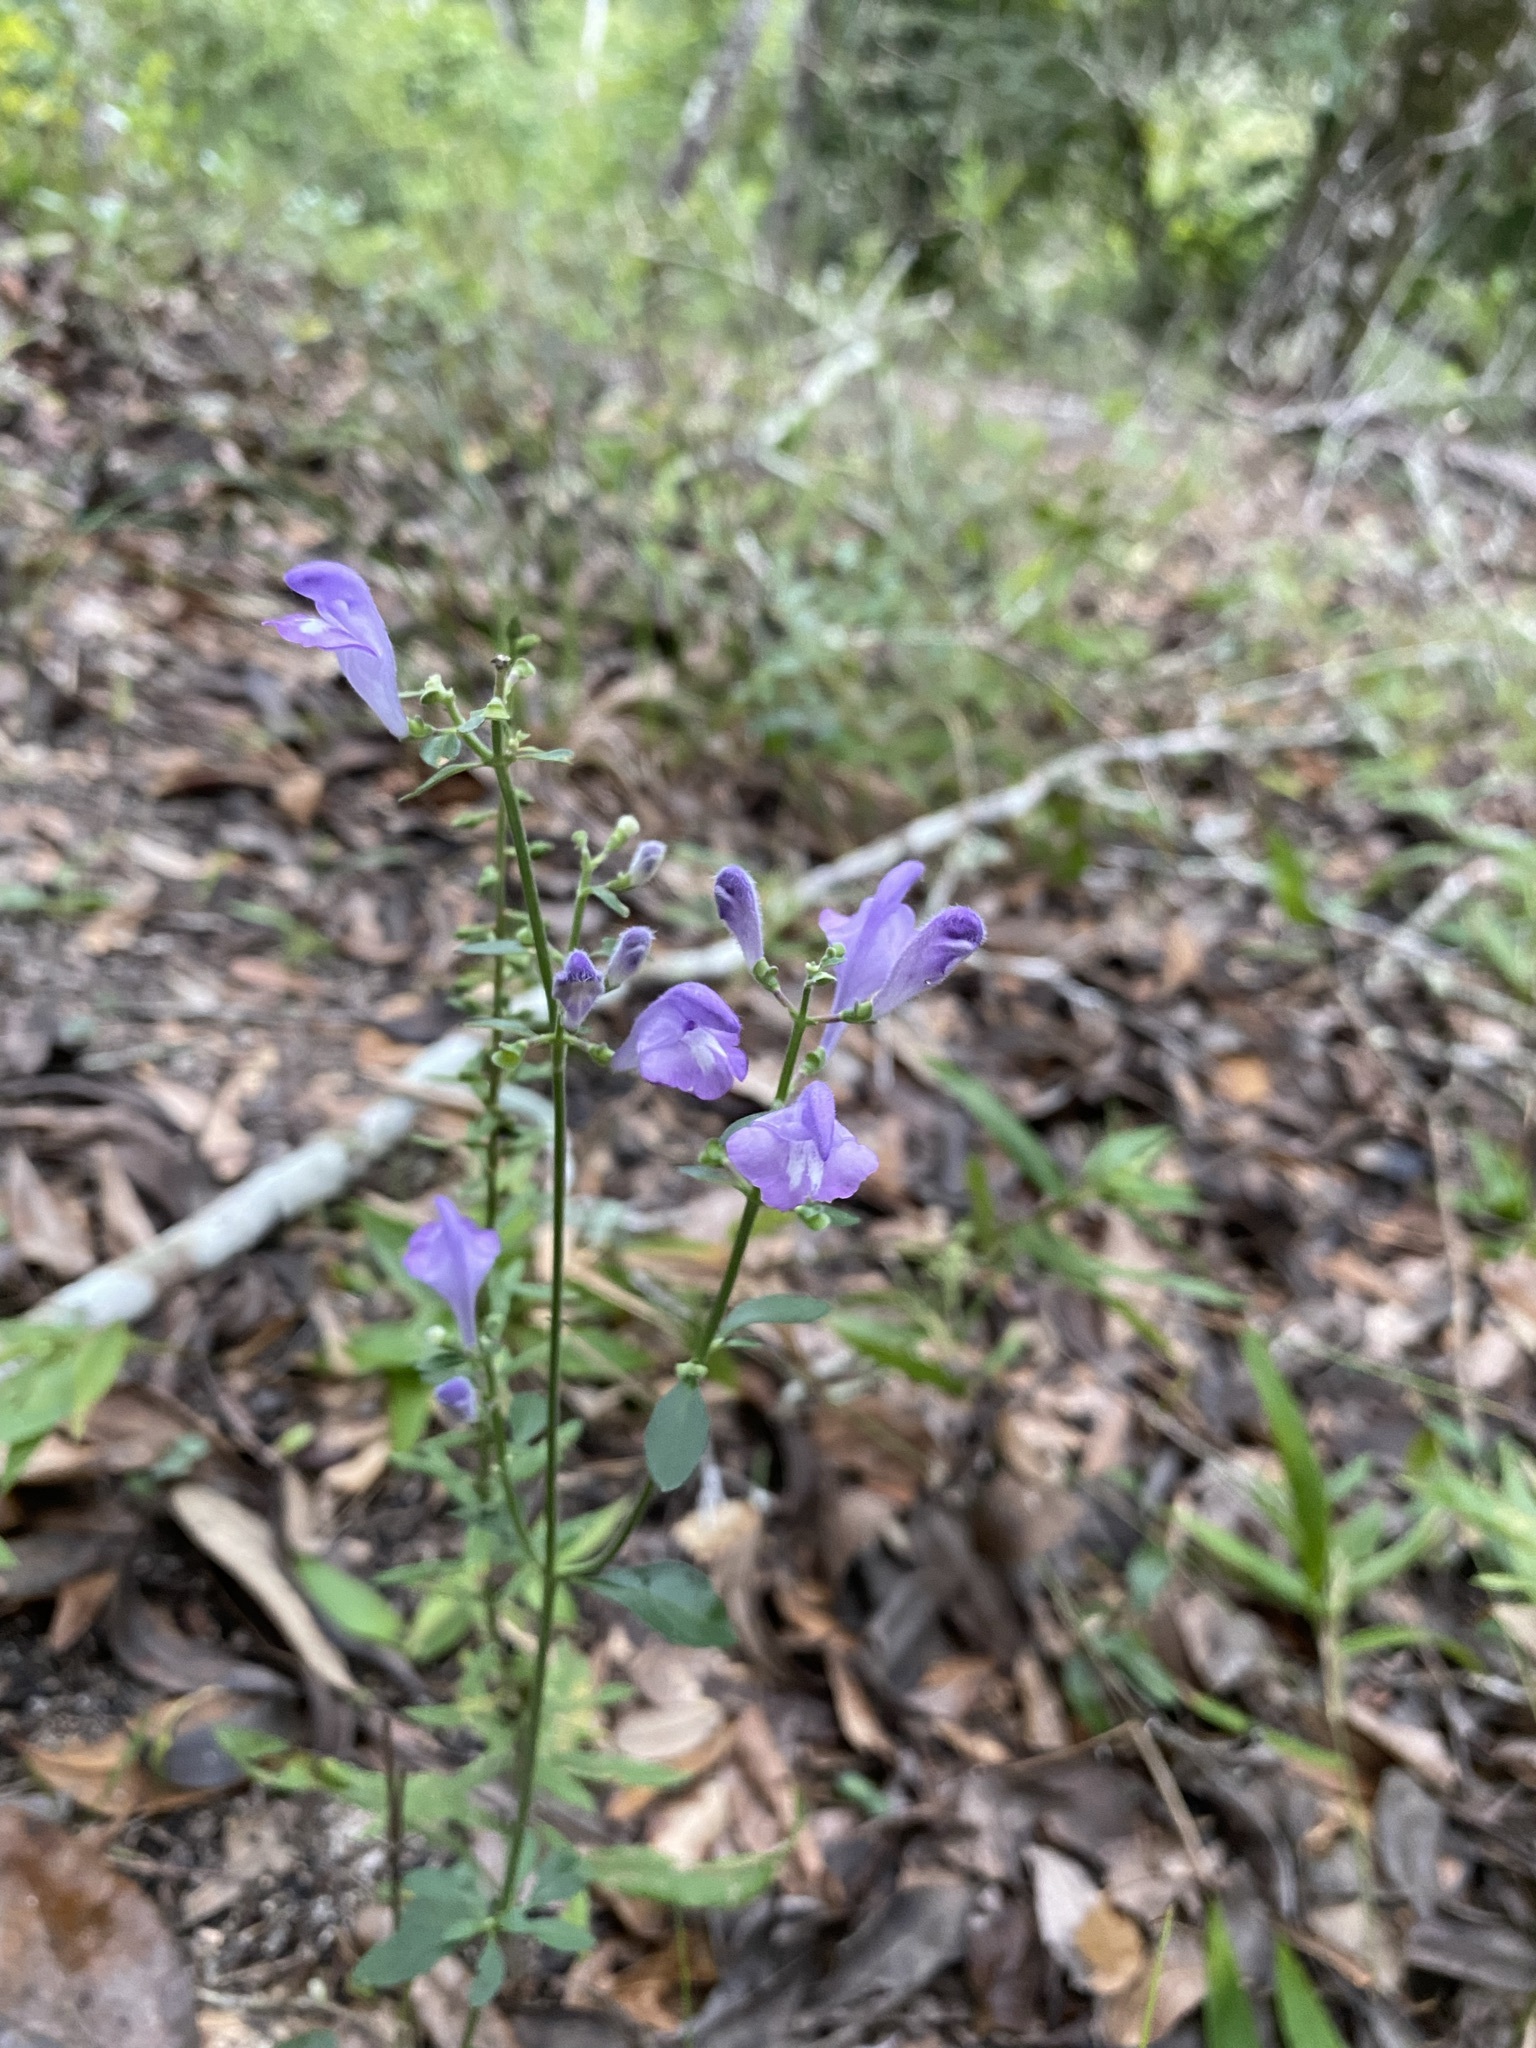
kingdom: Plantae
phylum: Tracheophyta
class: Magnoliopsida
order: Lamiales
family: Lamiaceae
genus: Scutellaria
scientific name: Scutellaria integrifolia
